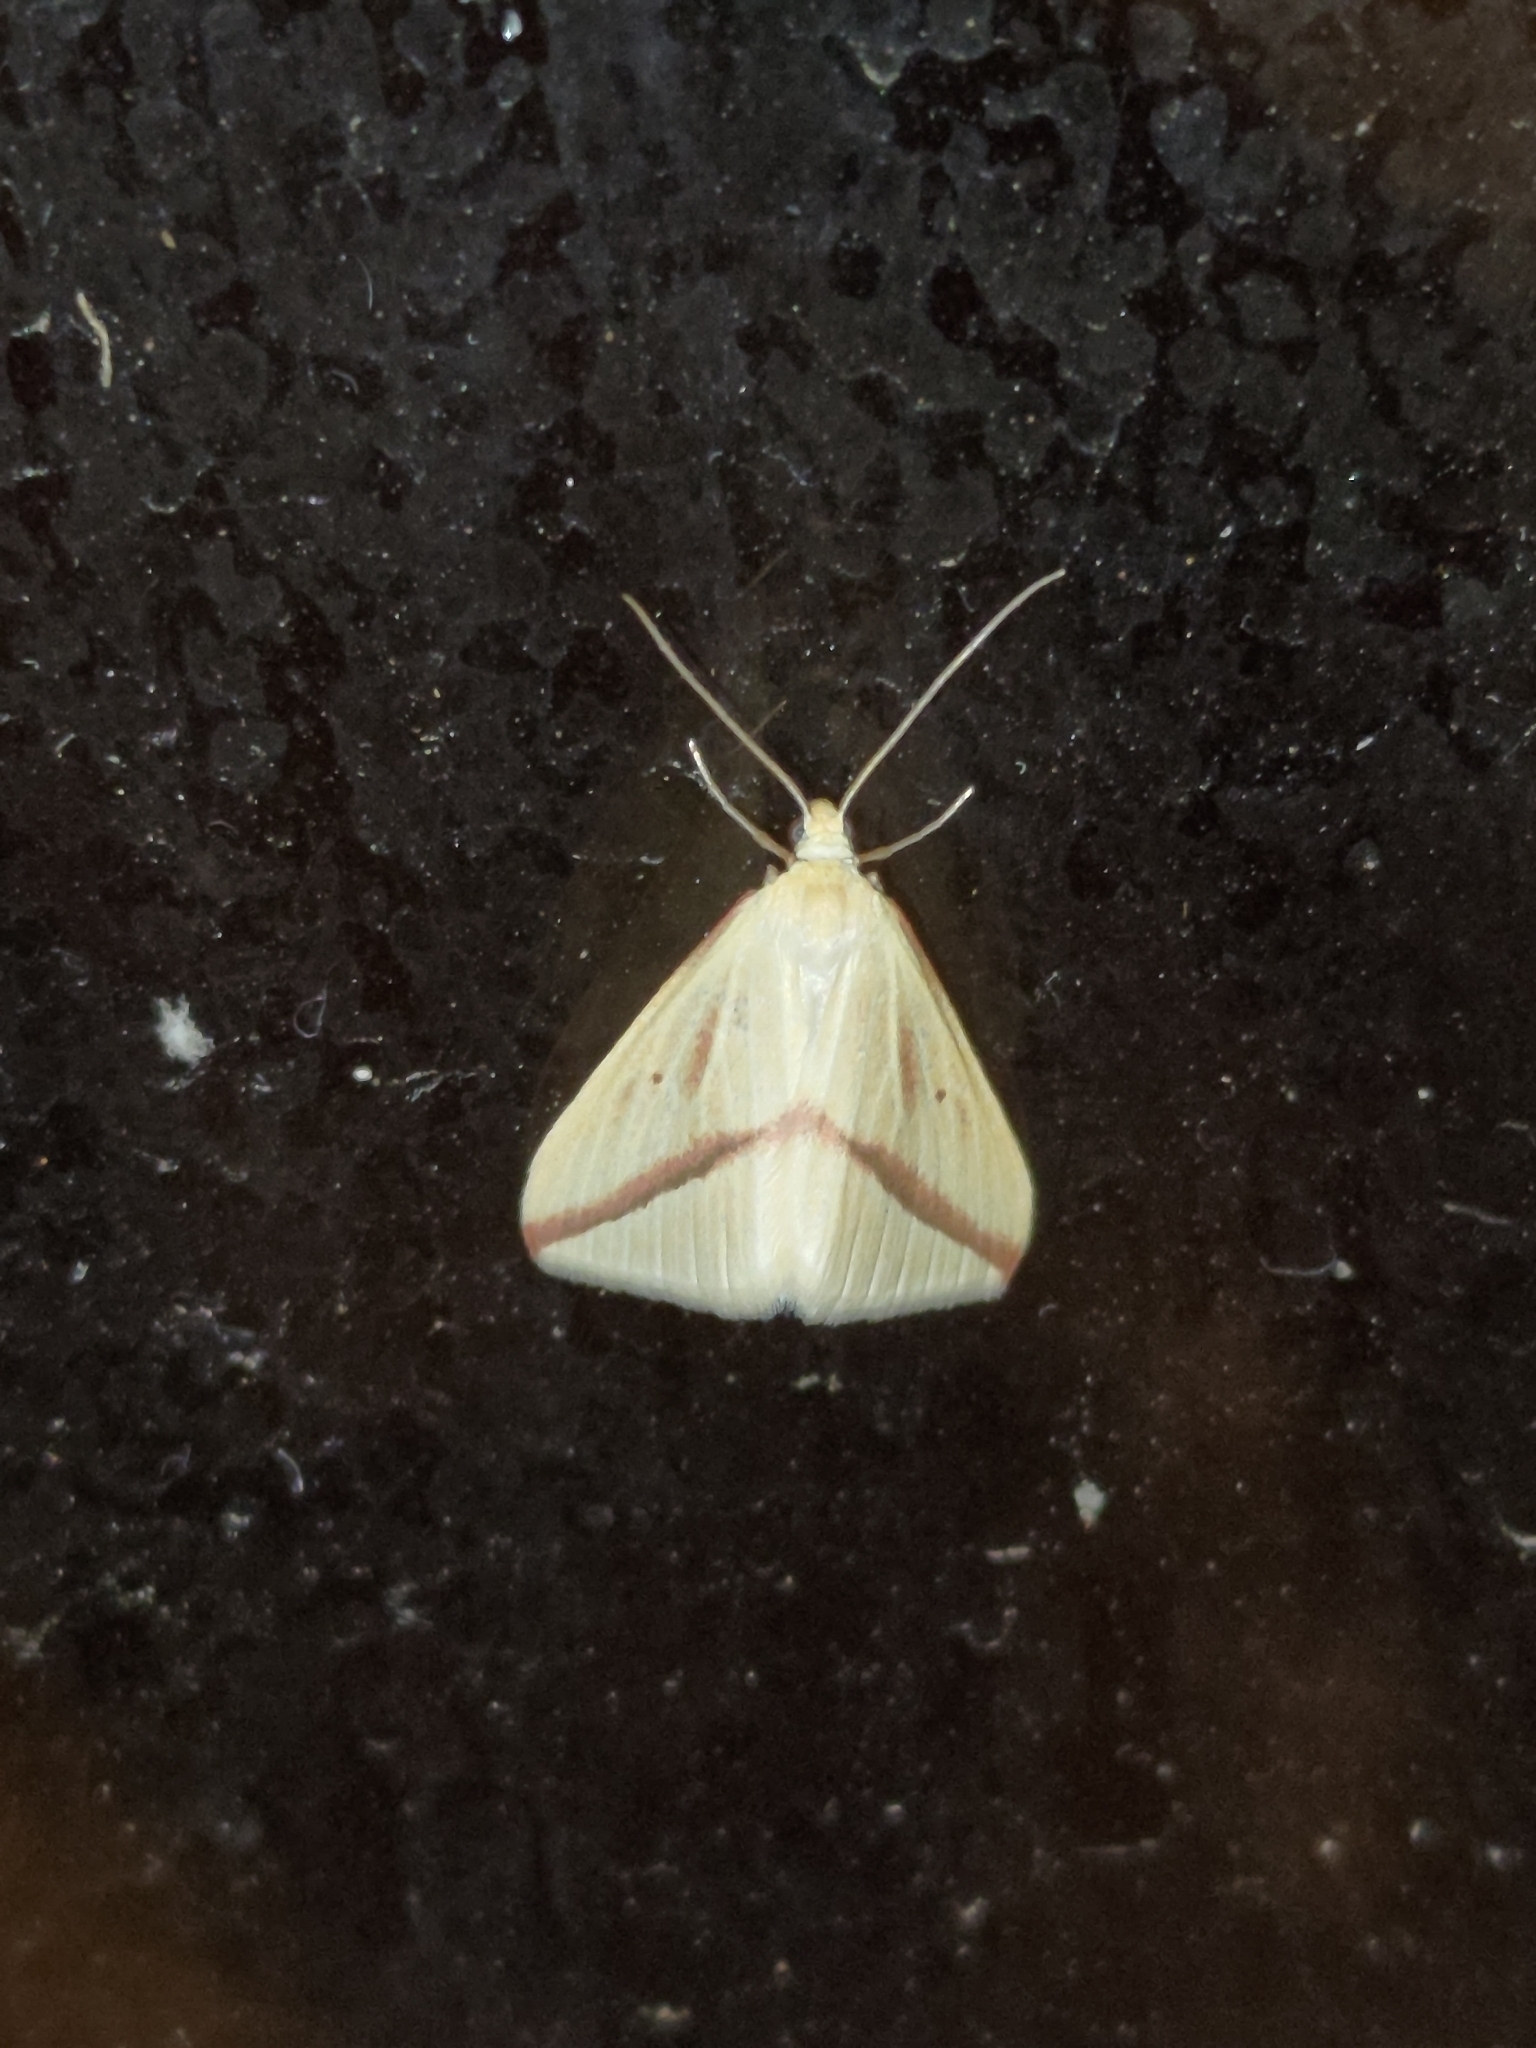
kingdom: Animalia
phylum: Arthropoda
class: Insecta
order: Lepidoptera
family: Geometridae
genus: Rhodometra
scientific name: Rhodometra sacraria
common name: Vestal
